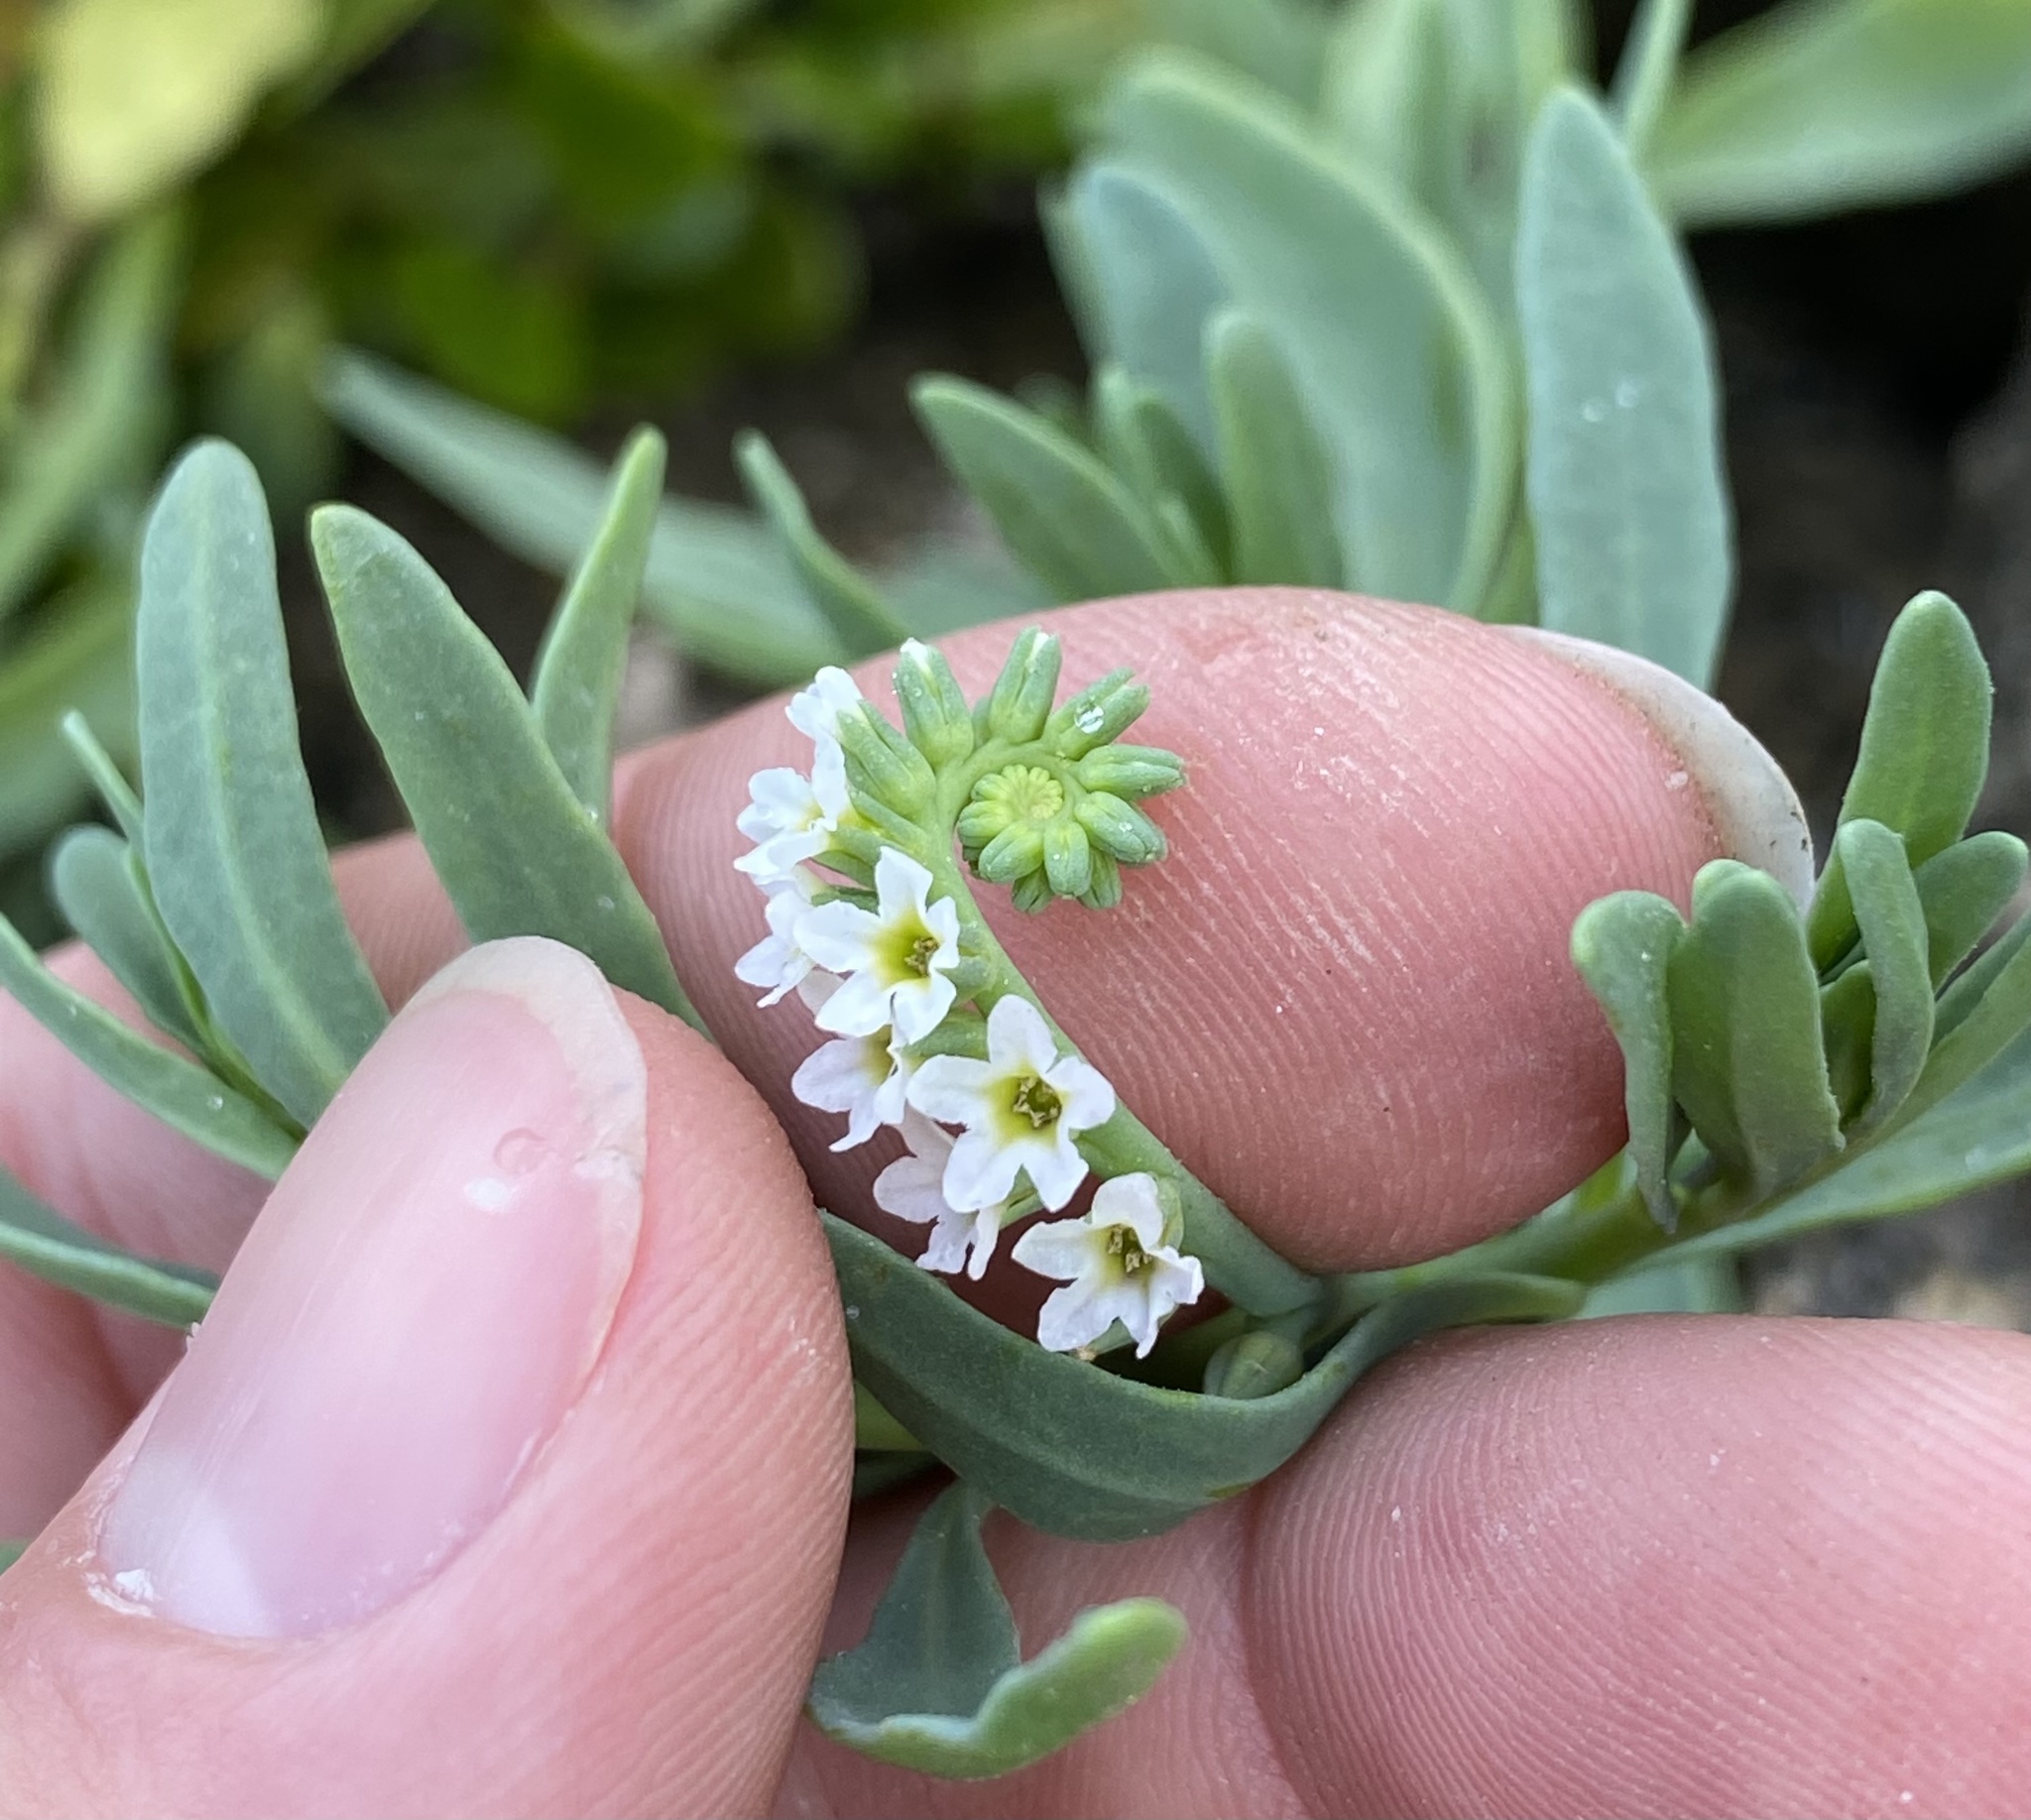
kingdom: Plantae
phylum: Tracheophyta
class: Magnoliopsida
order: Boraginales
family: Heliotropiaceae
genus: Heliotropium
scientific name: Heliotropium curassavicum
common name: Seaside heliotrope
